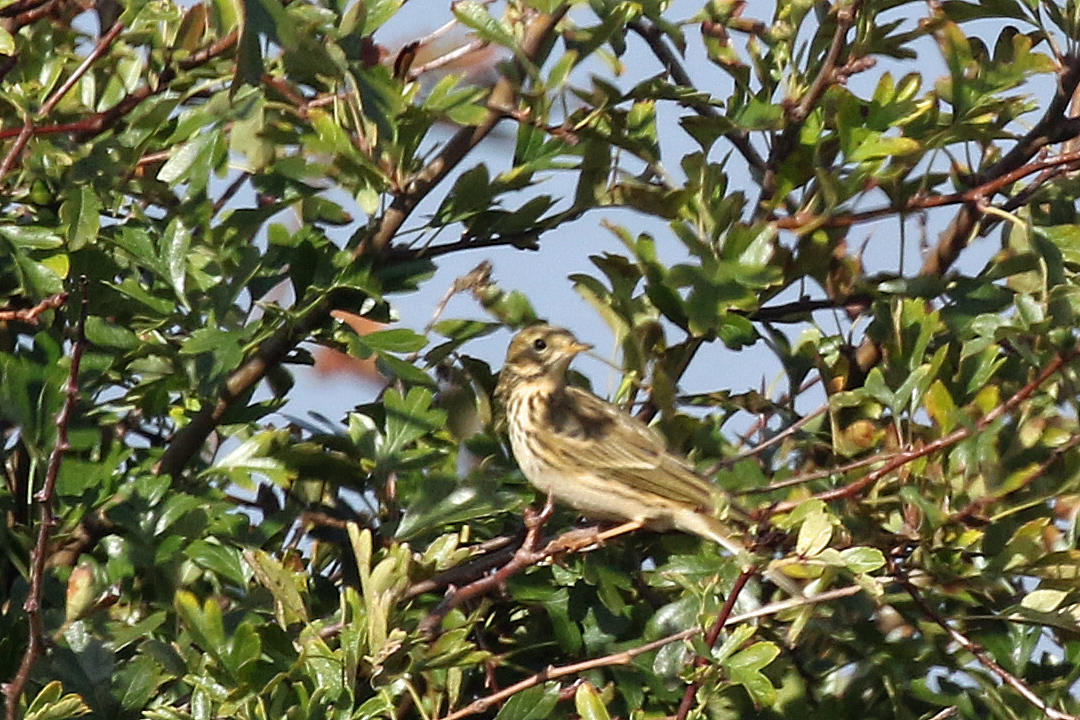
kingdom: Animalia
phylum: Chordata
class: Aves
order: Passeriformes
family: Motacillidae
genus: Anthus
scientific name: Anthus pratensis
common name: Meadow pipit
